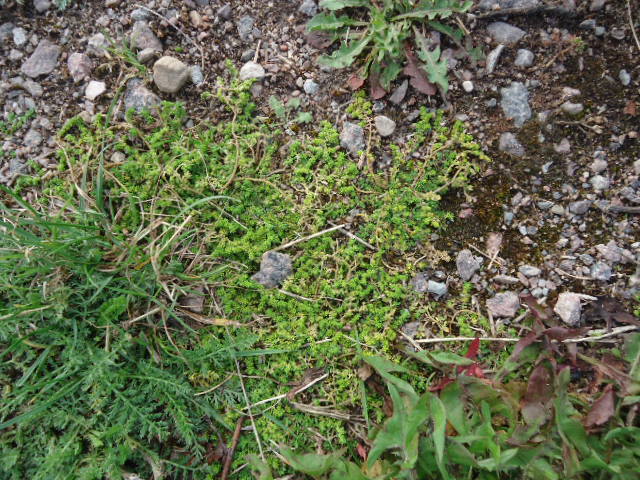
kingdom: Plantae
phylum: Tracheophyta
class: Magnoliopsida
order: Caryophyllales
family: Caryophyllaceae
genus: Herniaria
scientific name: Herniaria glabra
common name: Smooth rupturewort
